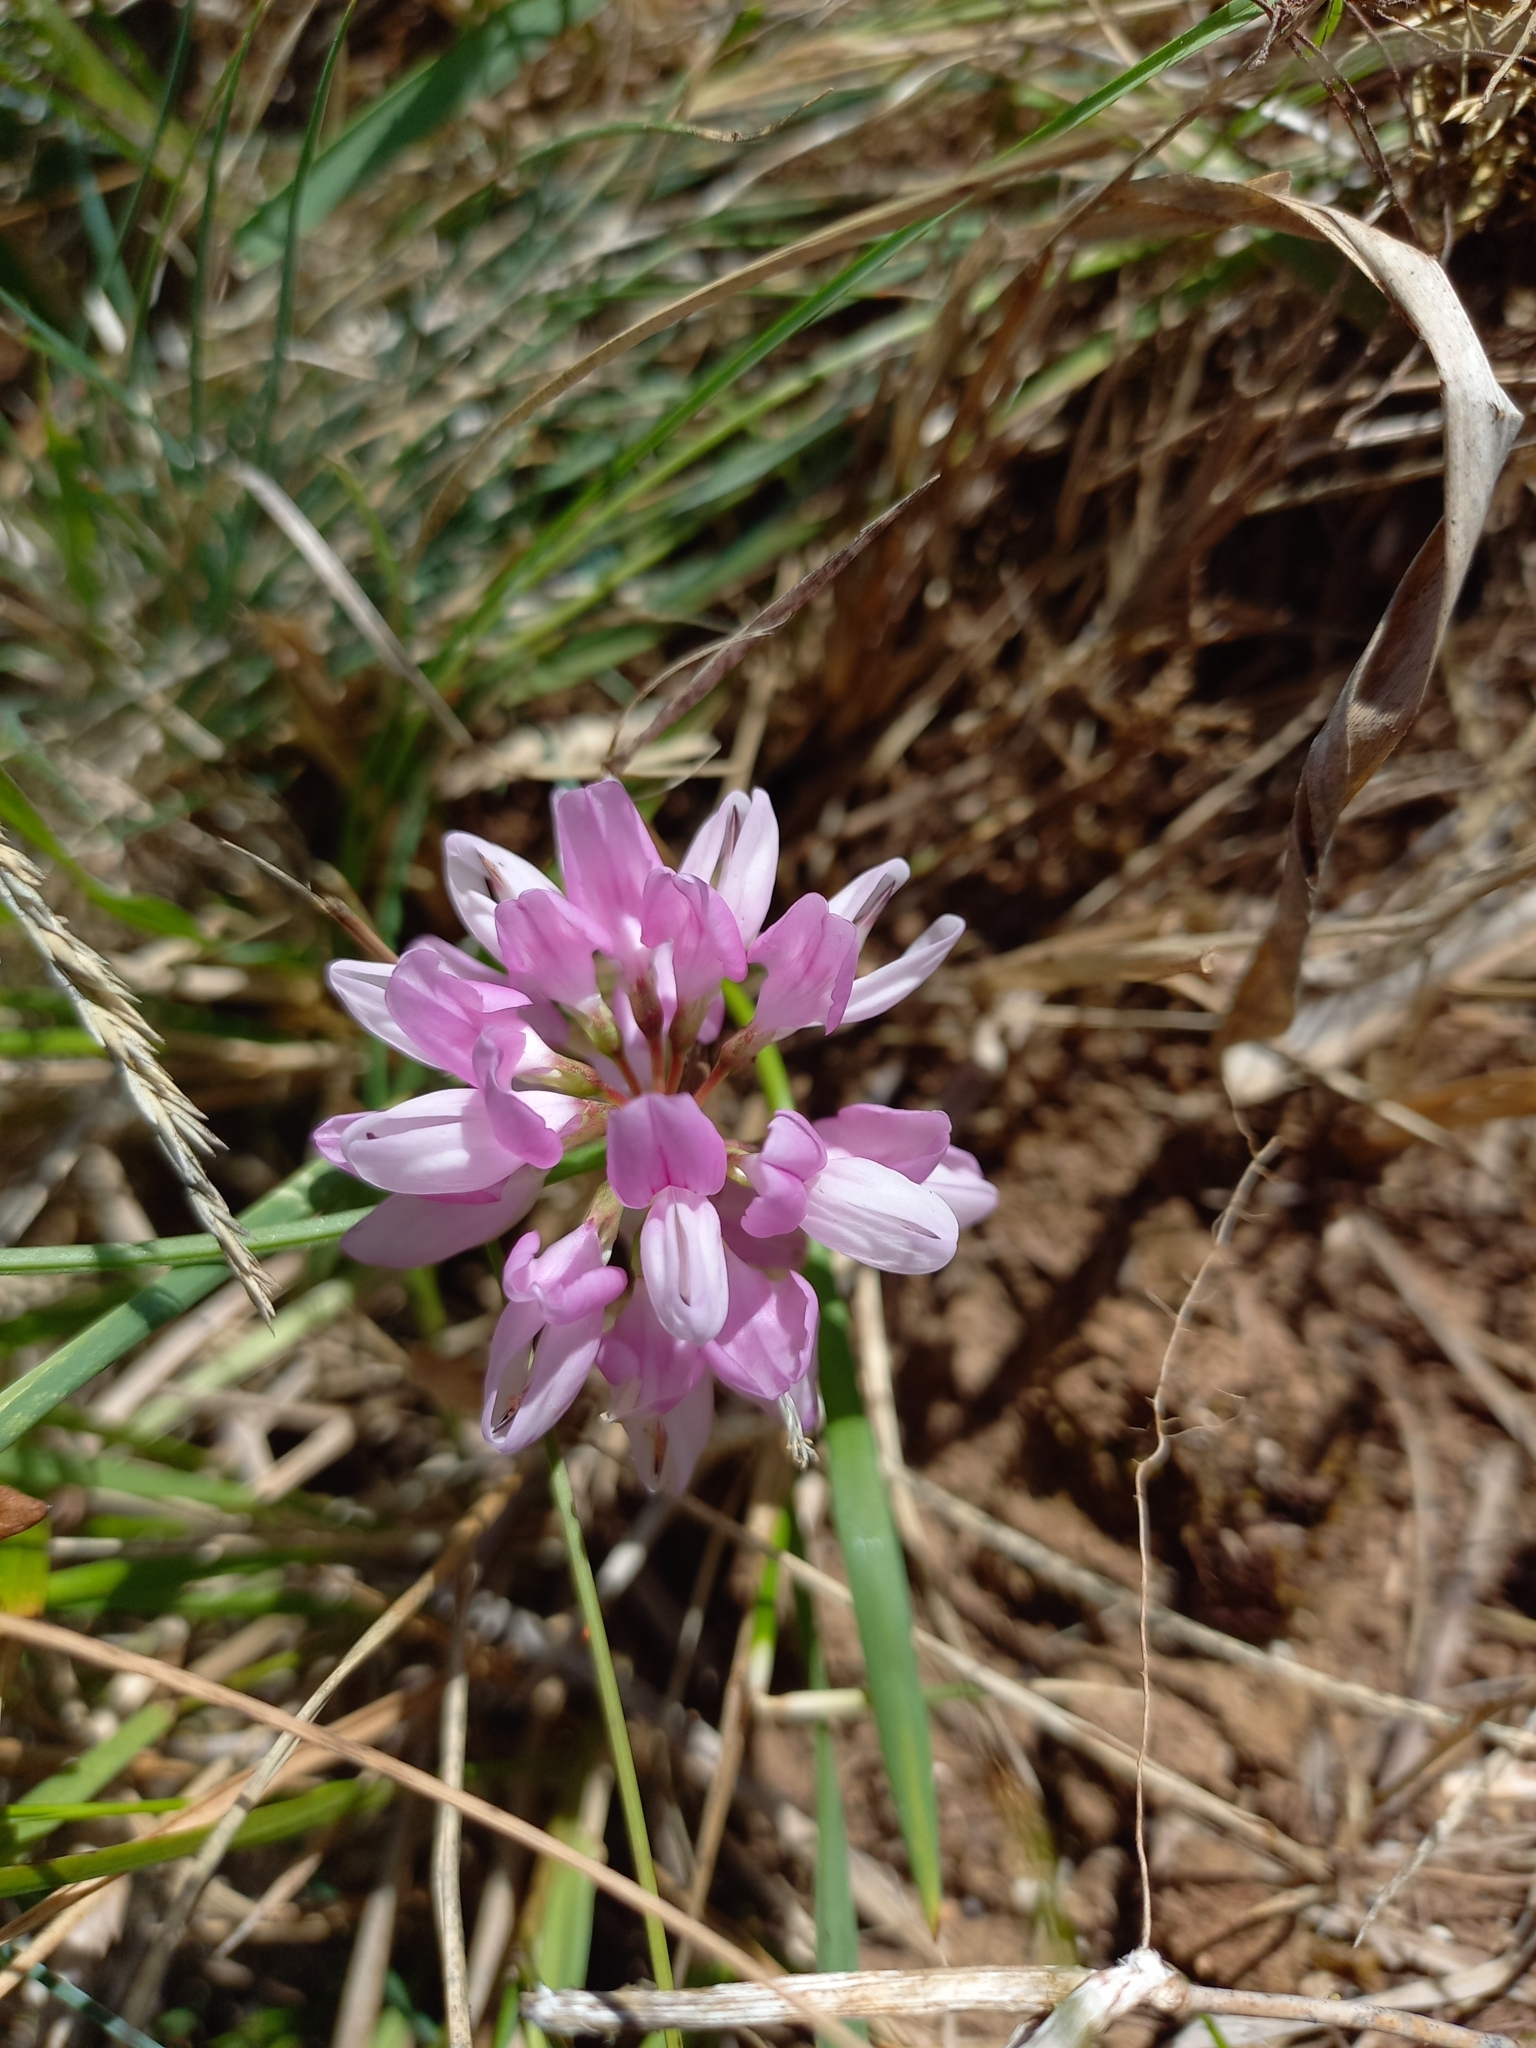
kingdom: Plantae
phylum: Tracheophyta
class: Magnoliopsida
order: Fabales
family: Fabaceae
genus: Coronilla
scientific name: Coronilla varia
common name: Crownvetch
